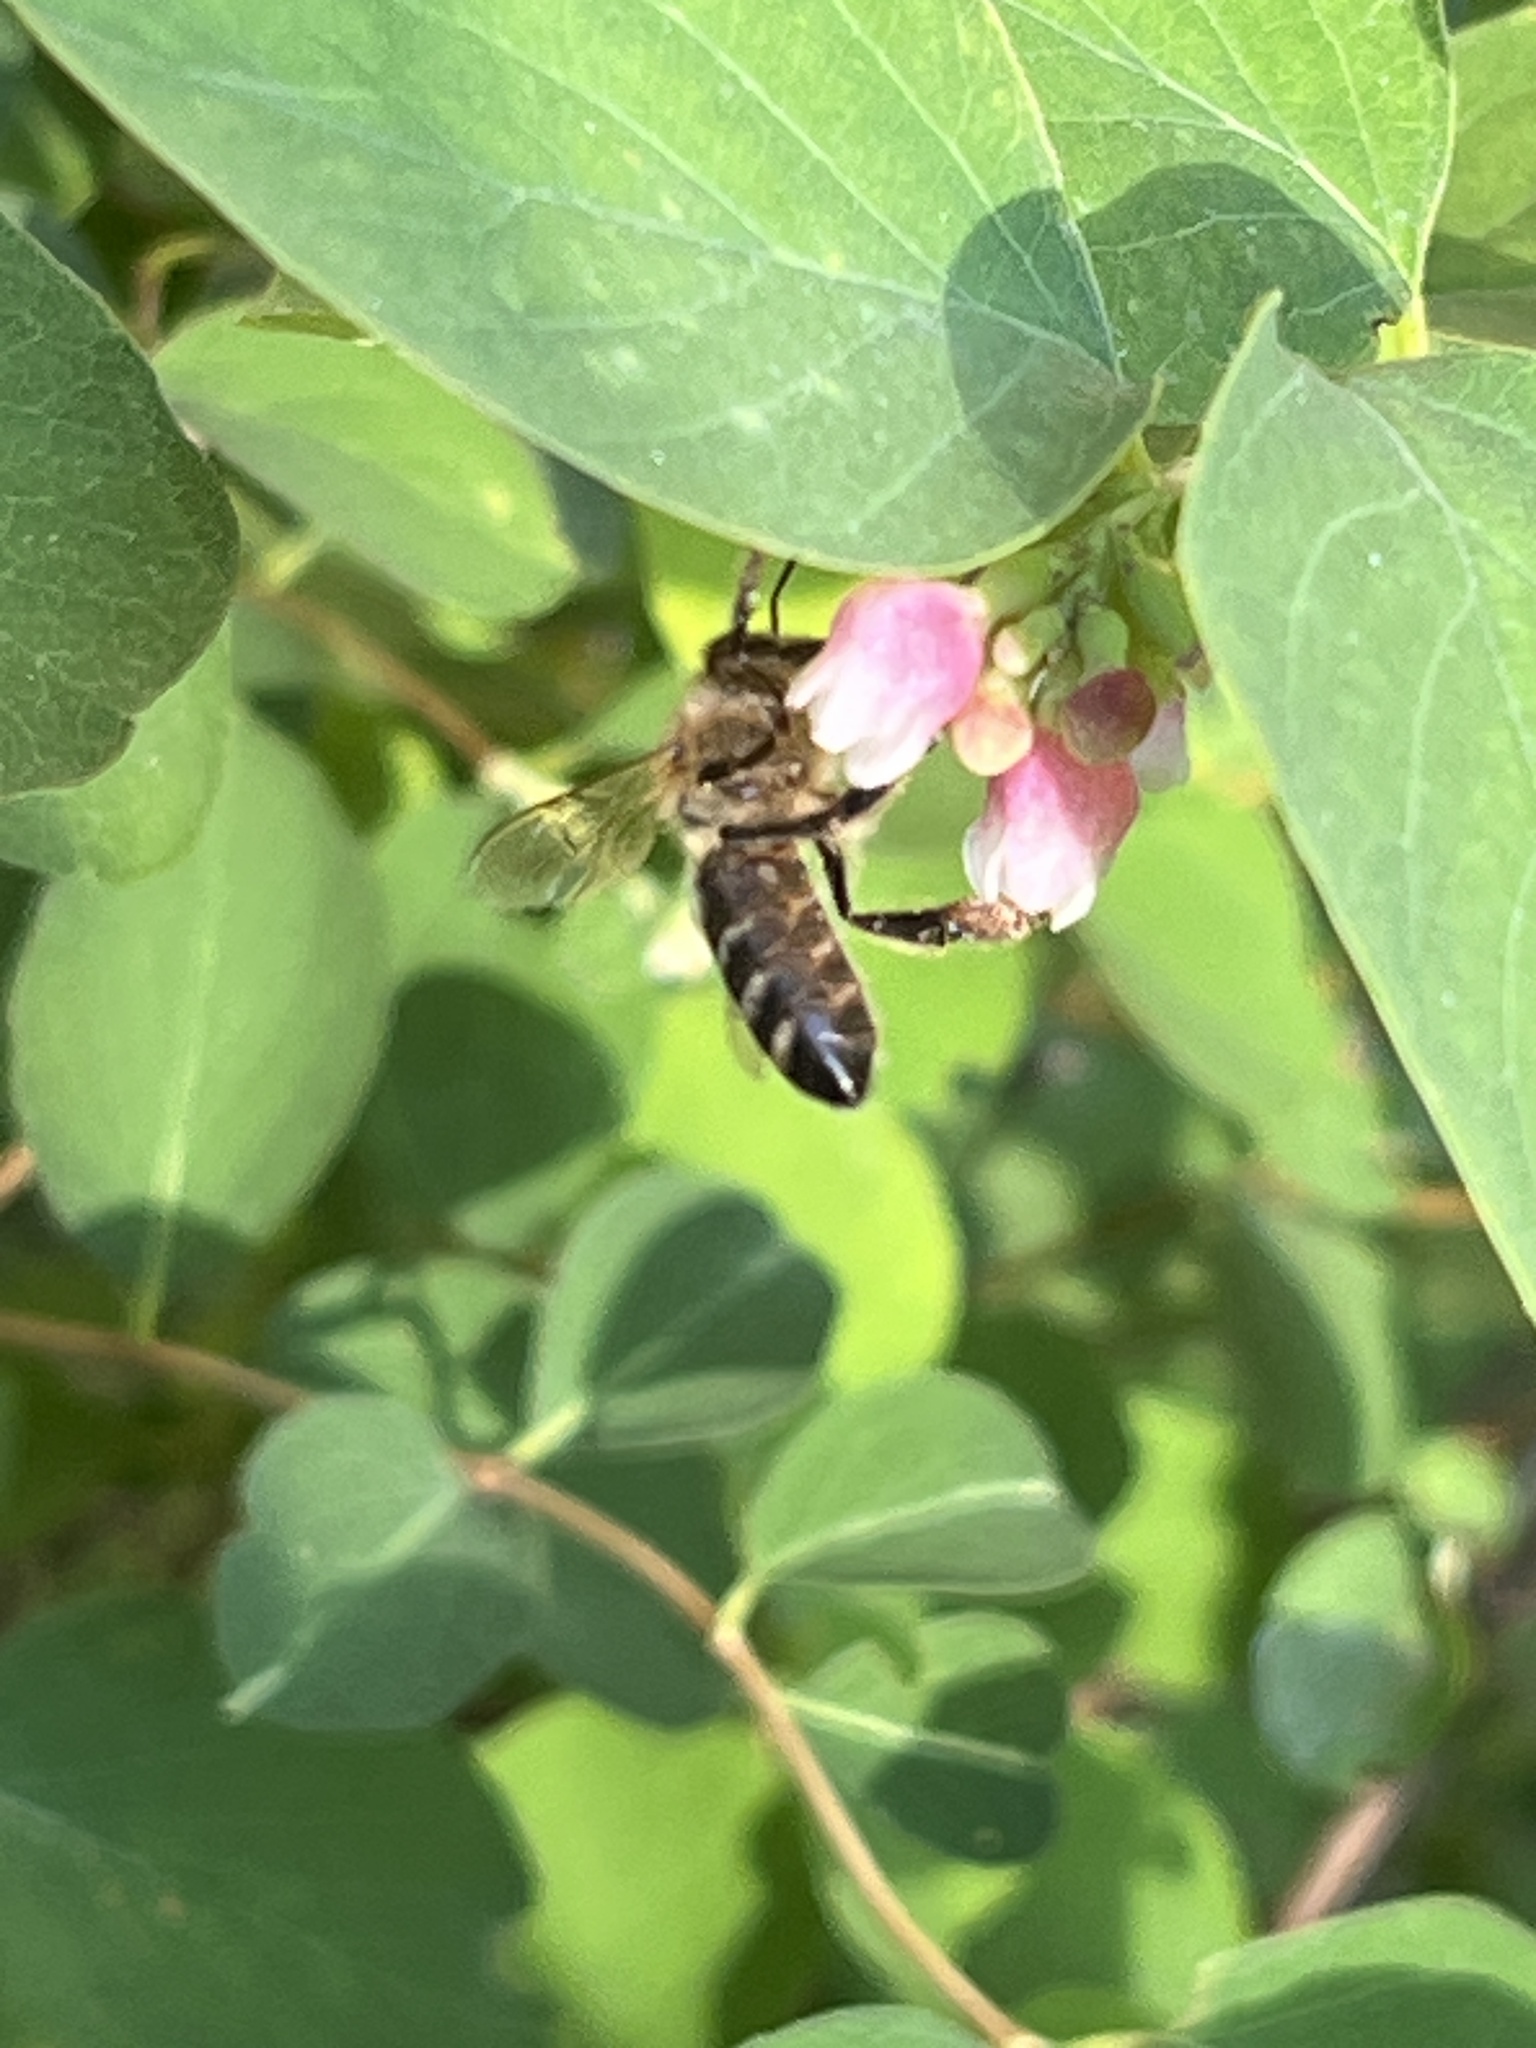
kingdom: Animalia
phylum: Arthropoda
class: Insecta
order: Hymenoptera
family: Apidae
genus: Apis
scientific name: Apis mellifera
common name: Honey bee
